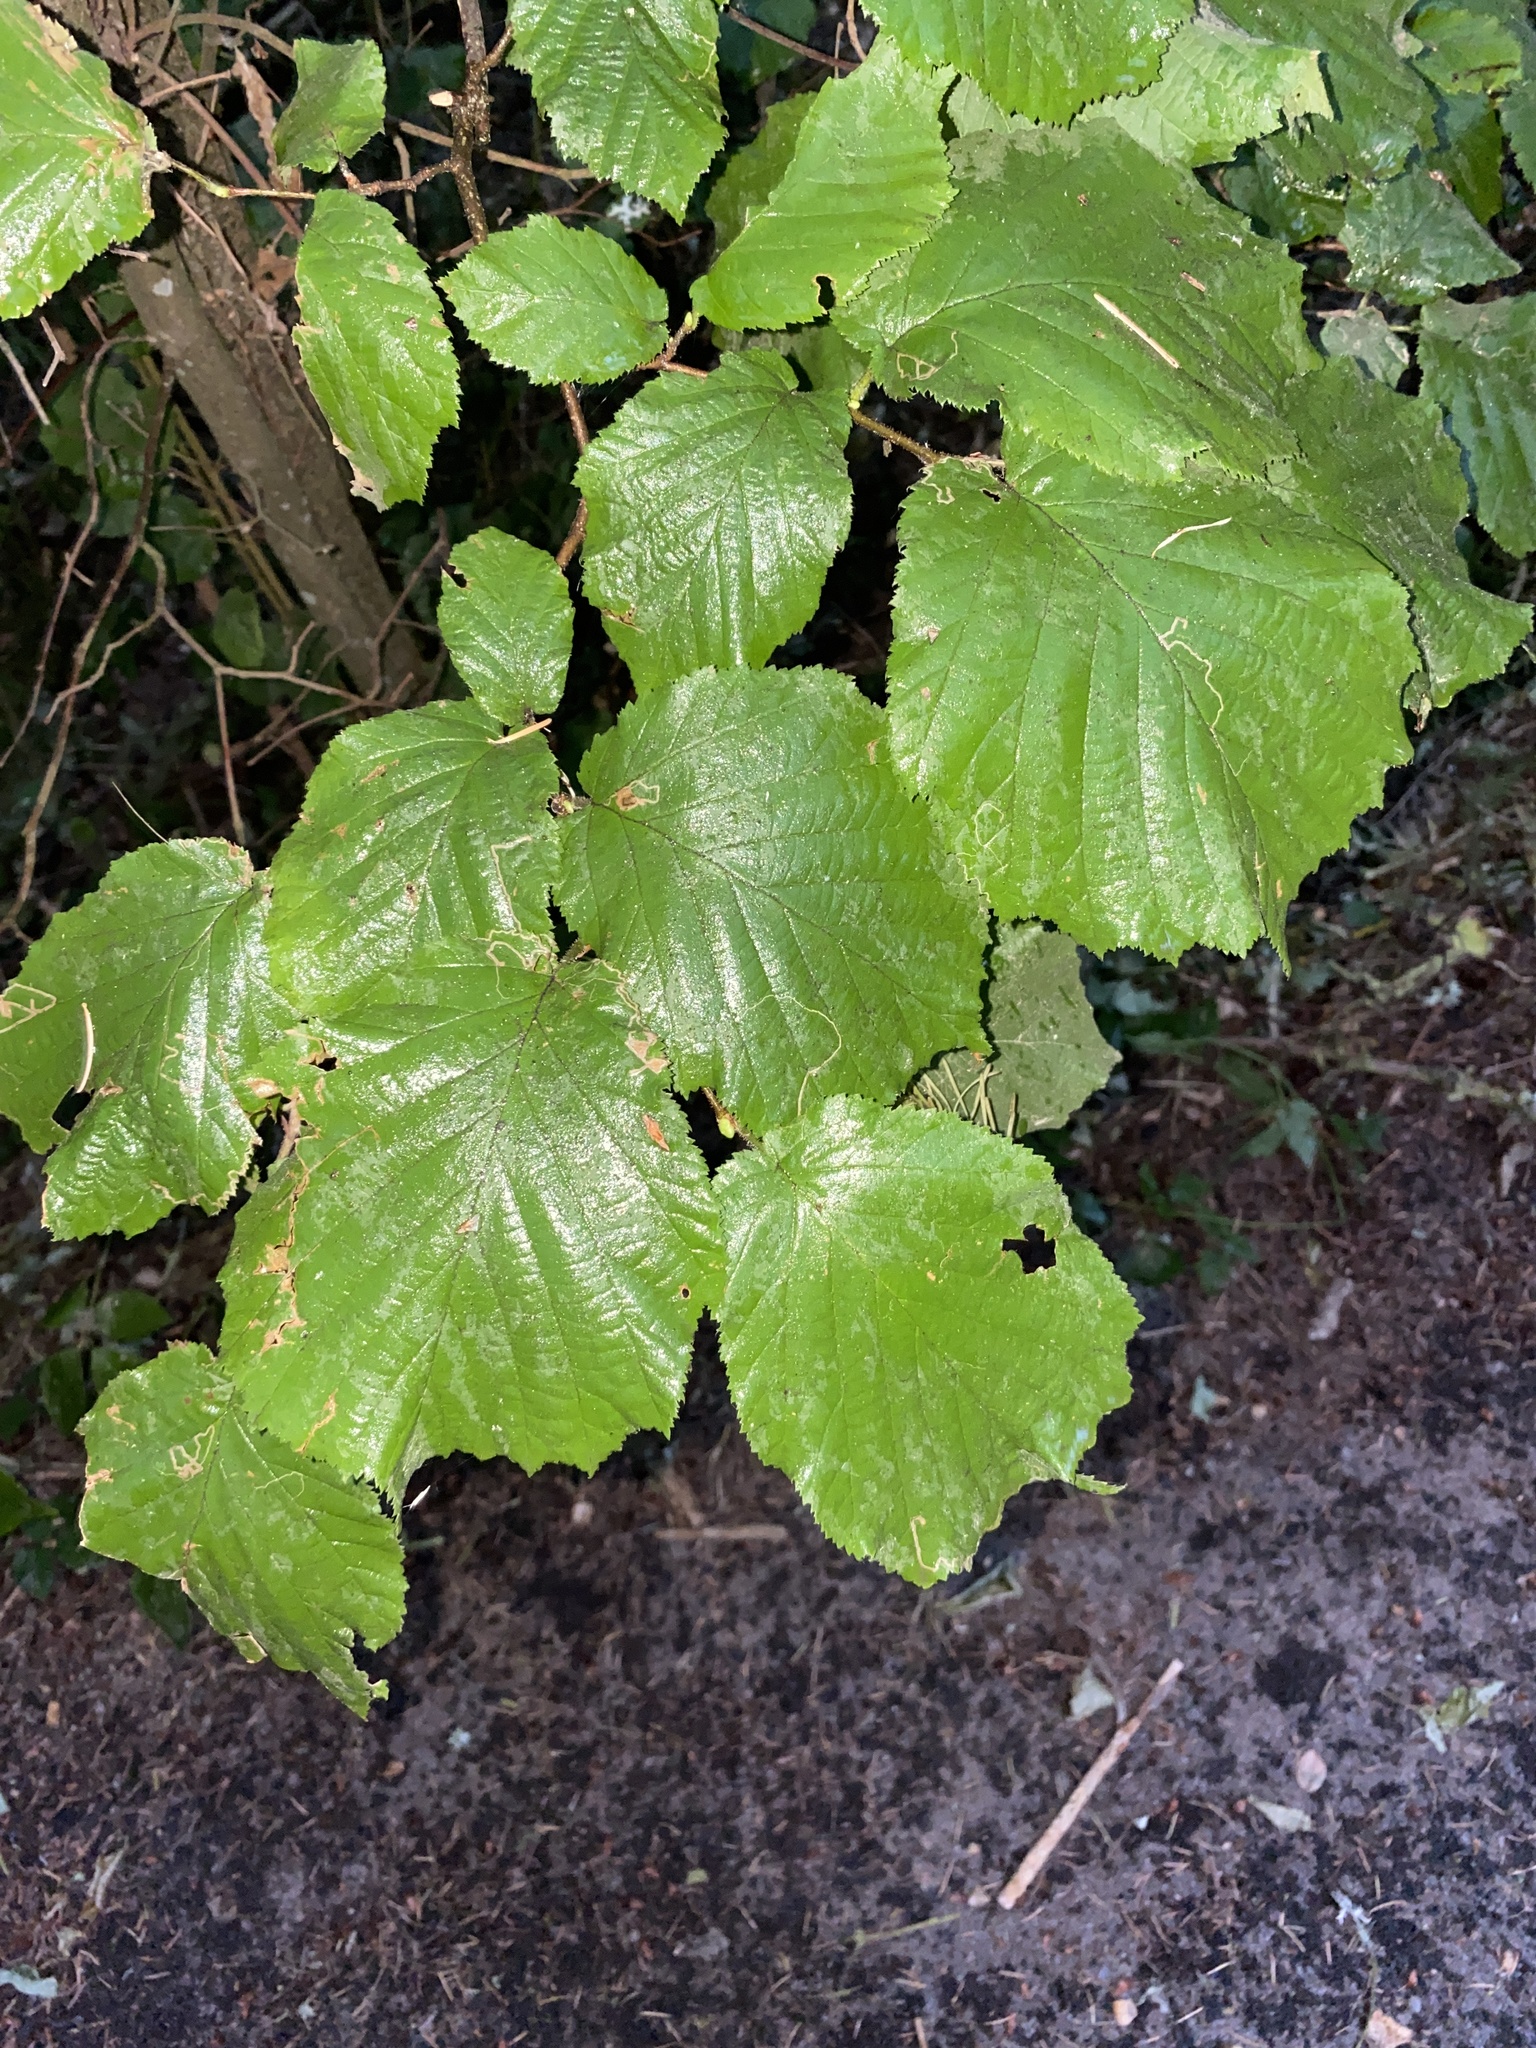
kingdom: Plantae
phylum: Tracheophyta
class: Magnoliopsida
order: Fagales
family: Betulaceae
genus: Corylus
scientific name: Corylus cornuta
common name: Beaked hazel
